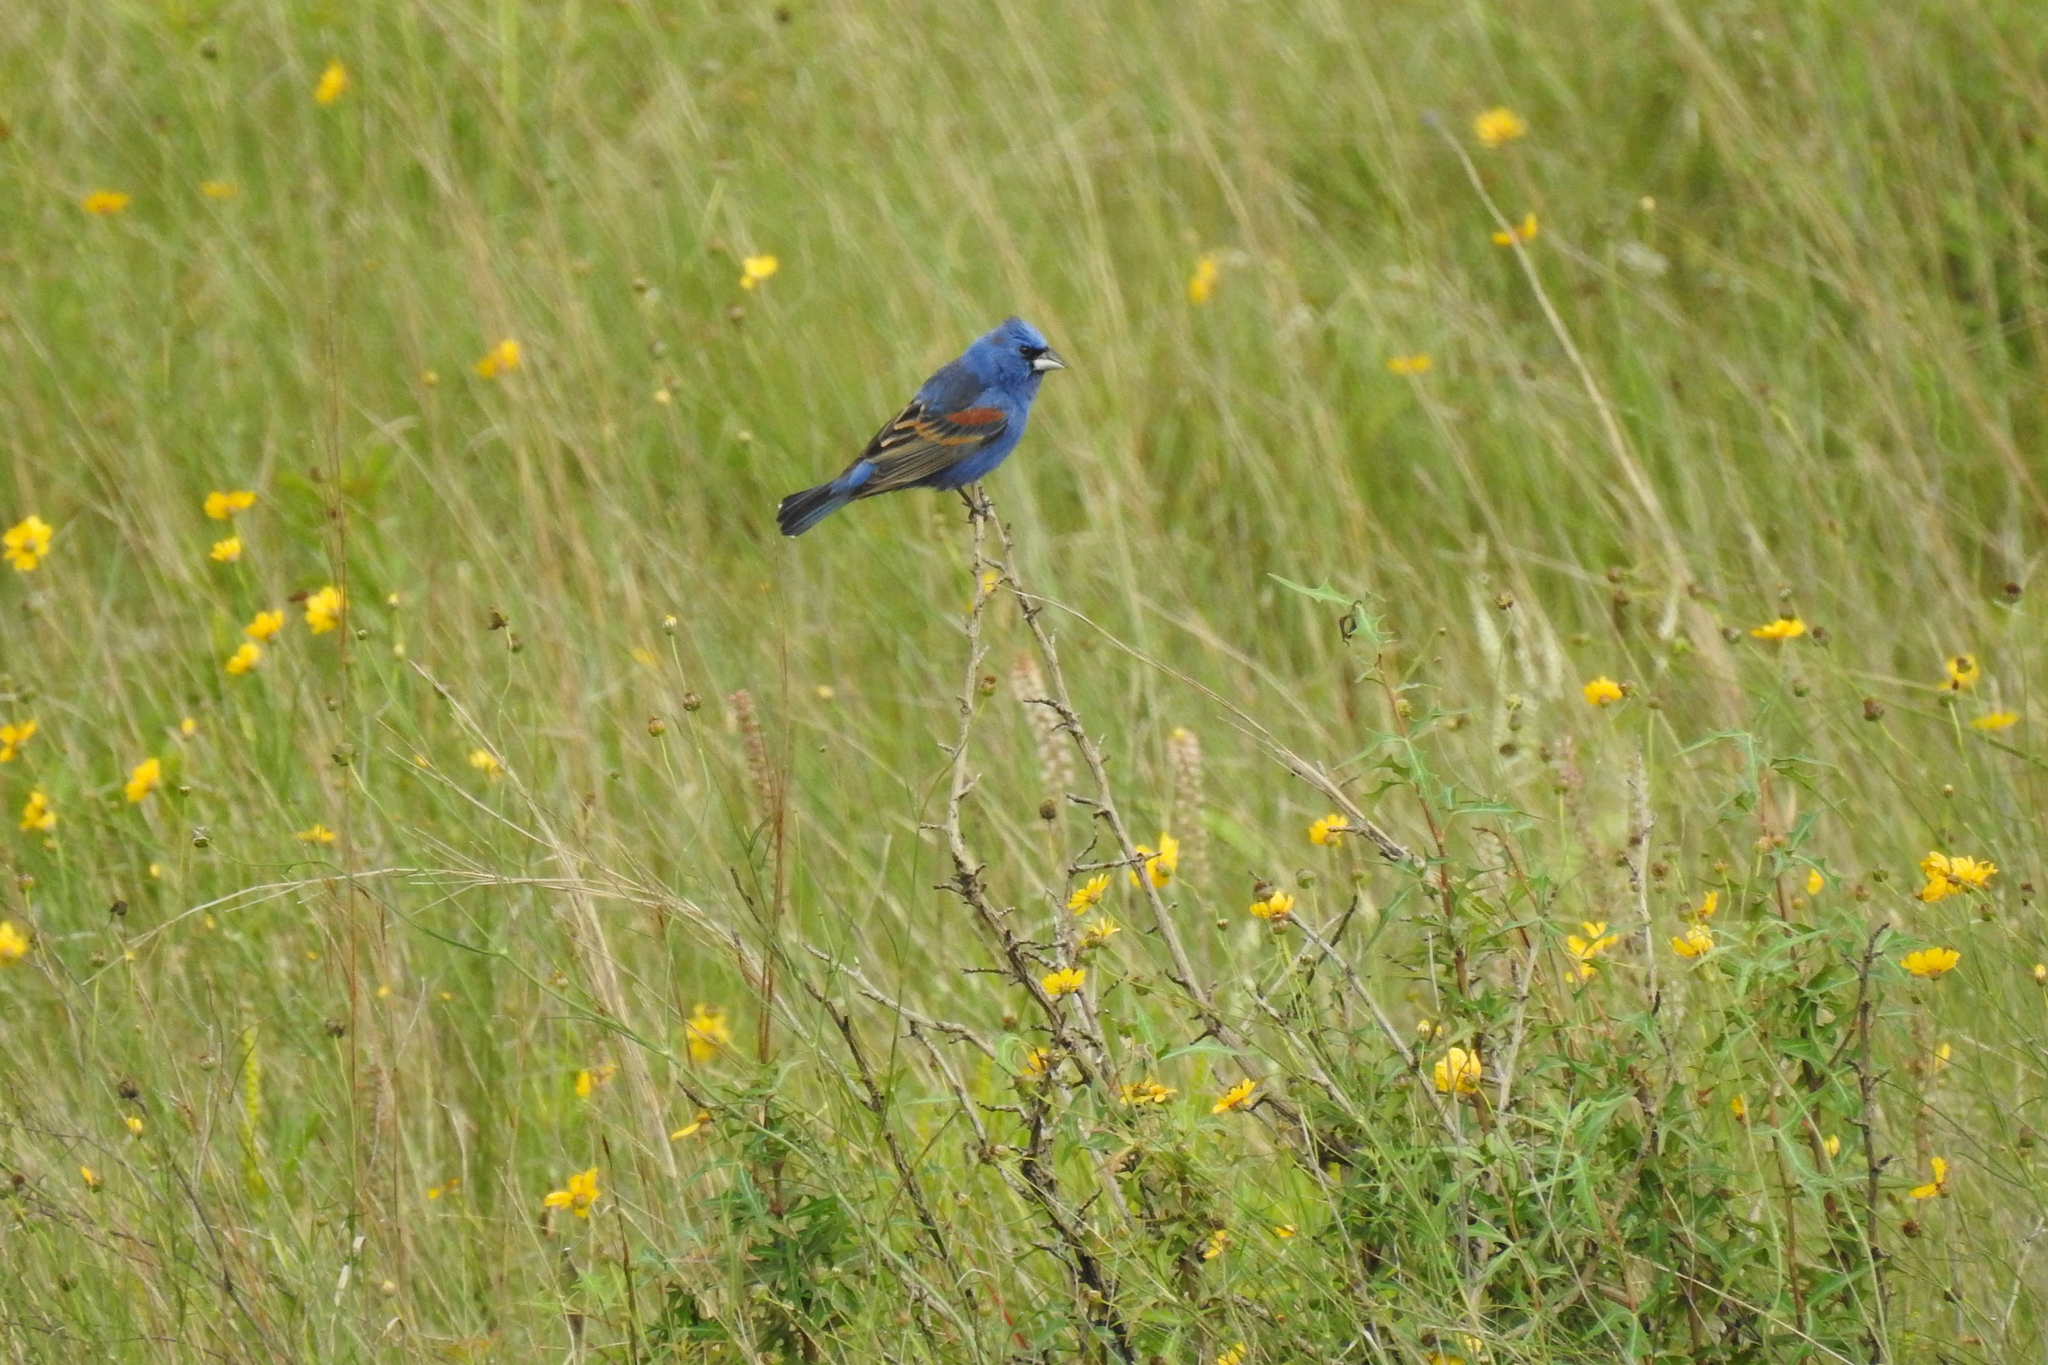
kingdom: Animalia
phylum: Chordata
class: Aves
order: Passeriformes
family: Cardinalidae
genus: Passerina
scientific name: Passerina caerulea
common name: Blue grosbeak
